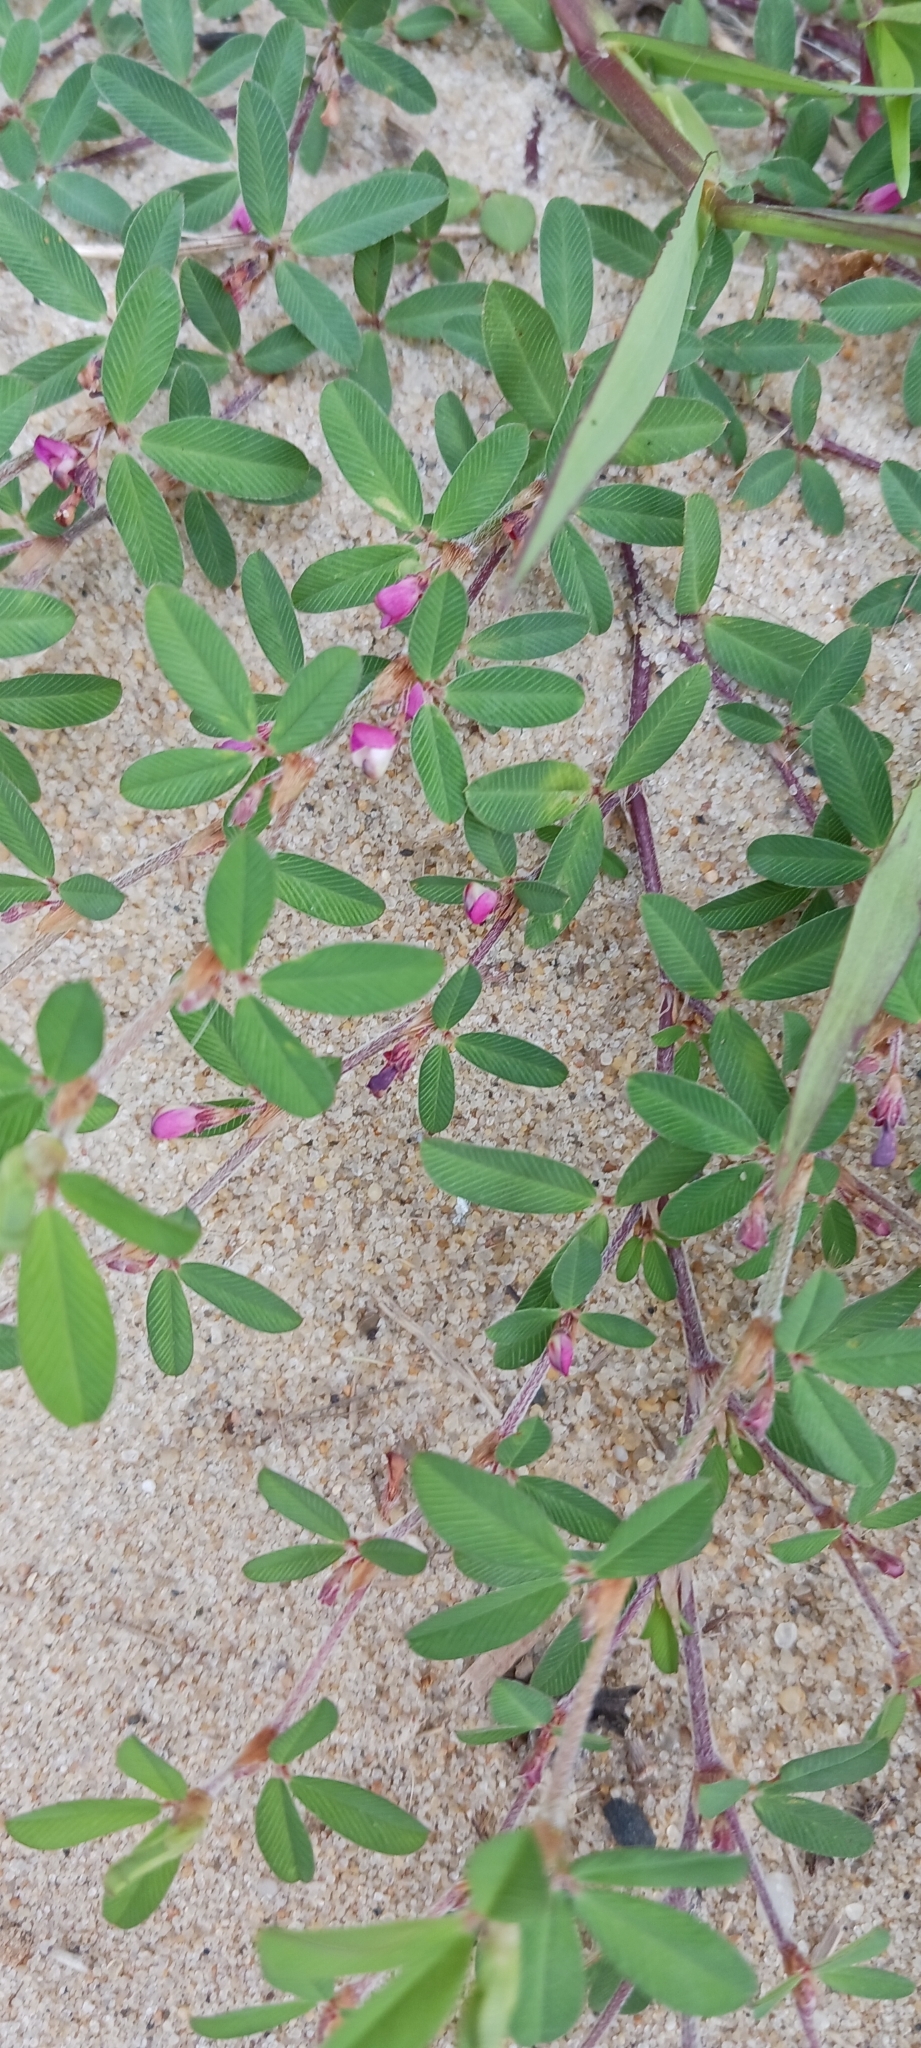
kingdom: Plantae
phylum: Tracheophyta
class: Magnoliopsida
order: Fabales
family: Fabaceae
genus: Kummerowia
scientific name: Kummerowia striata
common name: Japanese clover
